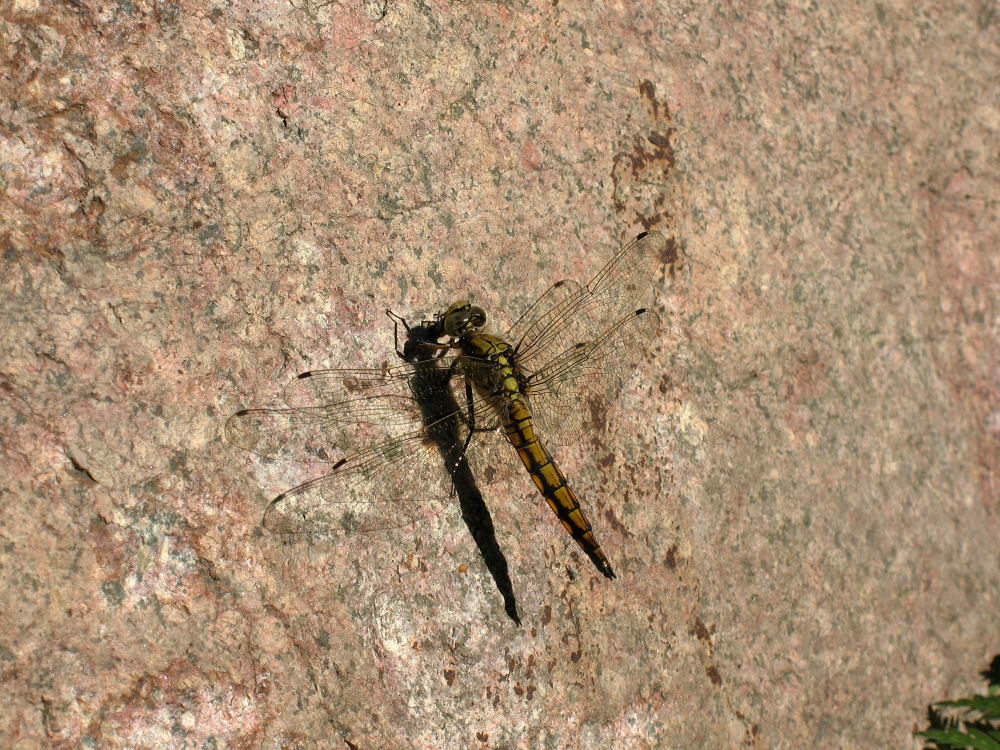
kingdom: Animalia
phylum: Arthropoda
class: Insecta
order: Odonata
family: Libellulidae
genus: Orthetrum
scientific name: Orthetrum cancellatum
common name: Black-tailed skimmer
